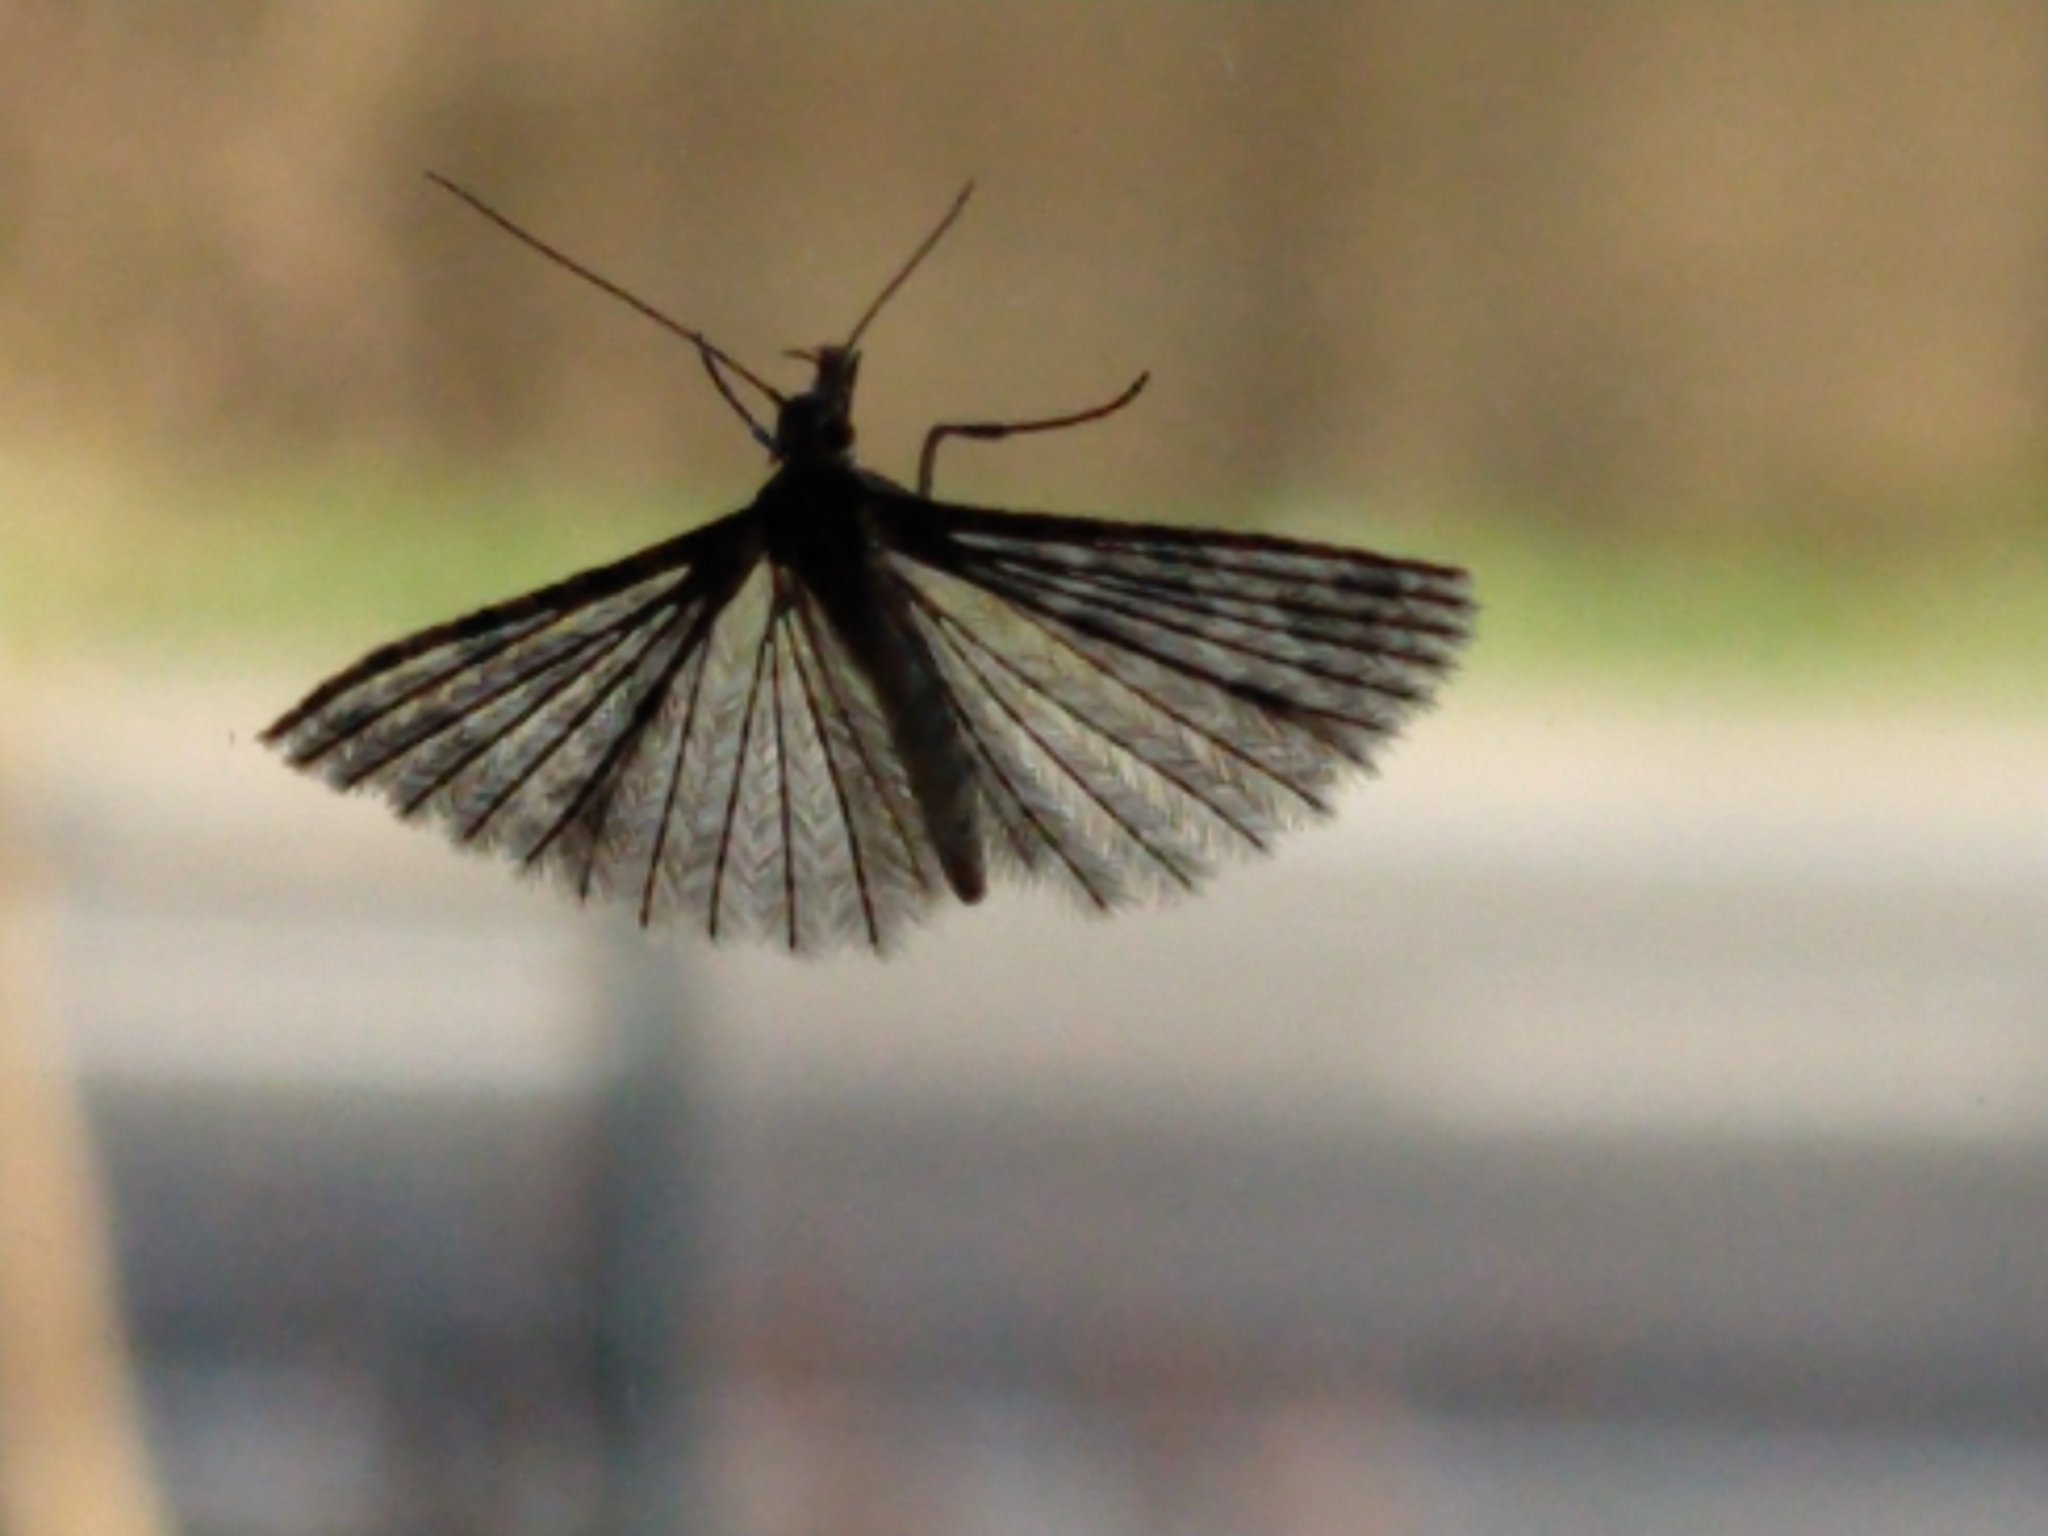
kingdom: Animalia
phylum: Arthropoda
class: Insecta
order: Lepidoptera
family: Alucitidae
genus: Alucita
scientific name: Alucita hexadactyla
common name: Twenty-plume moth
